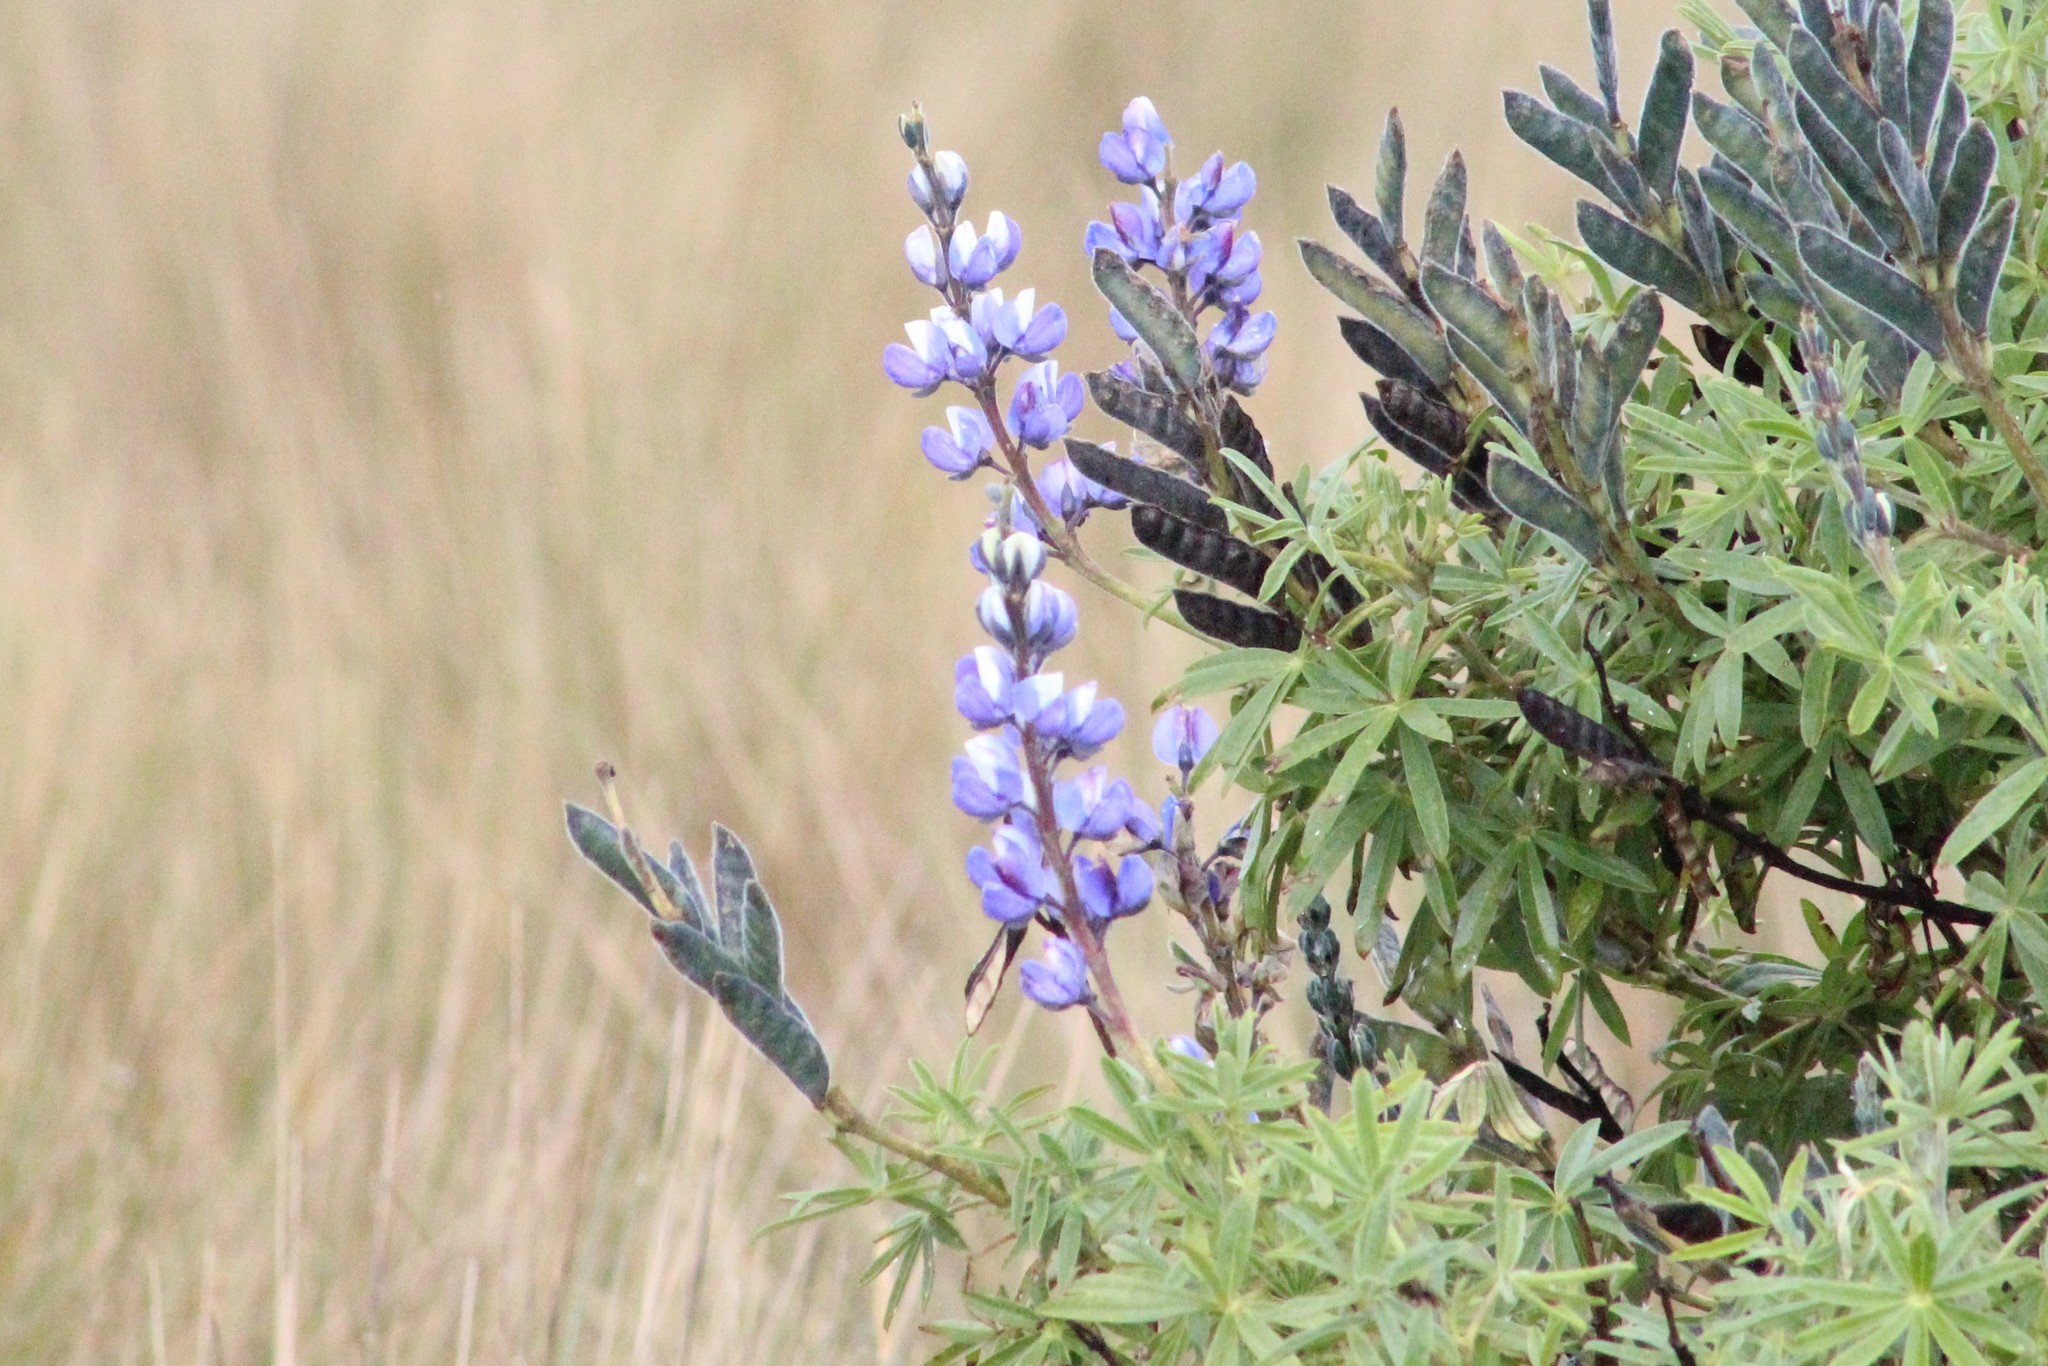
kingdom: Plantae
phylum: Tracheophyta
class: Magnoliopsida
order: Fabales
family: Fabaceae
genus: Lupinus
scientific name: Lupinus pubescens
